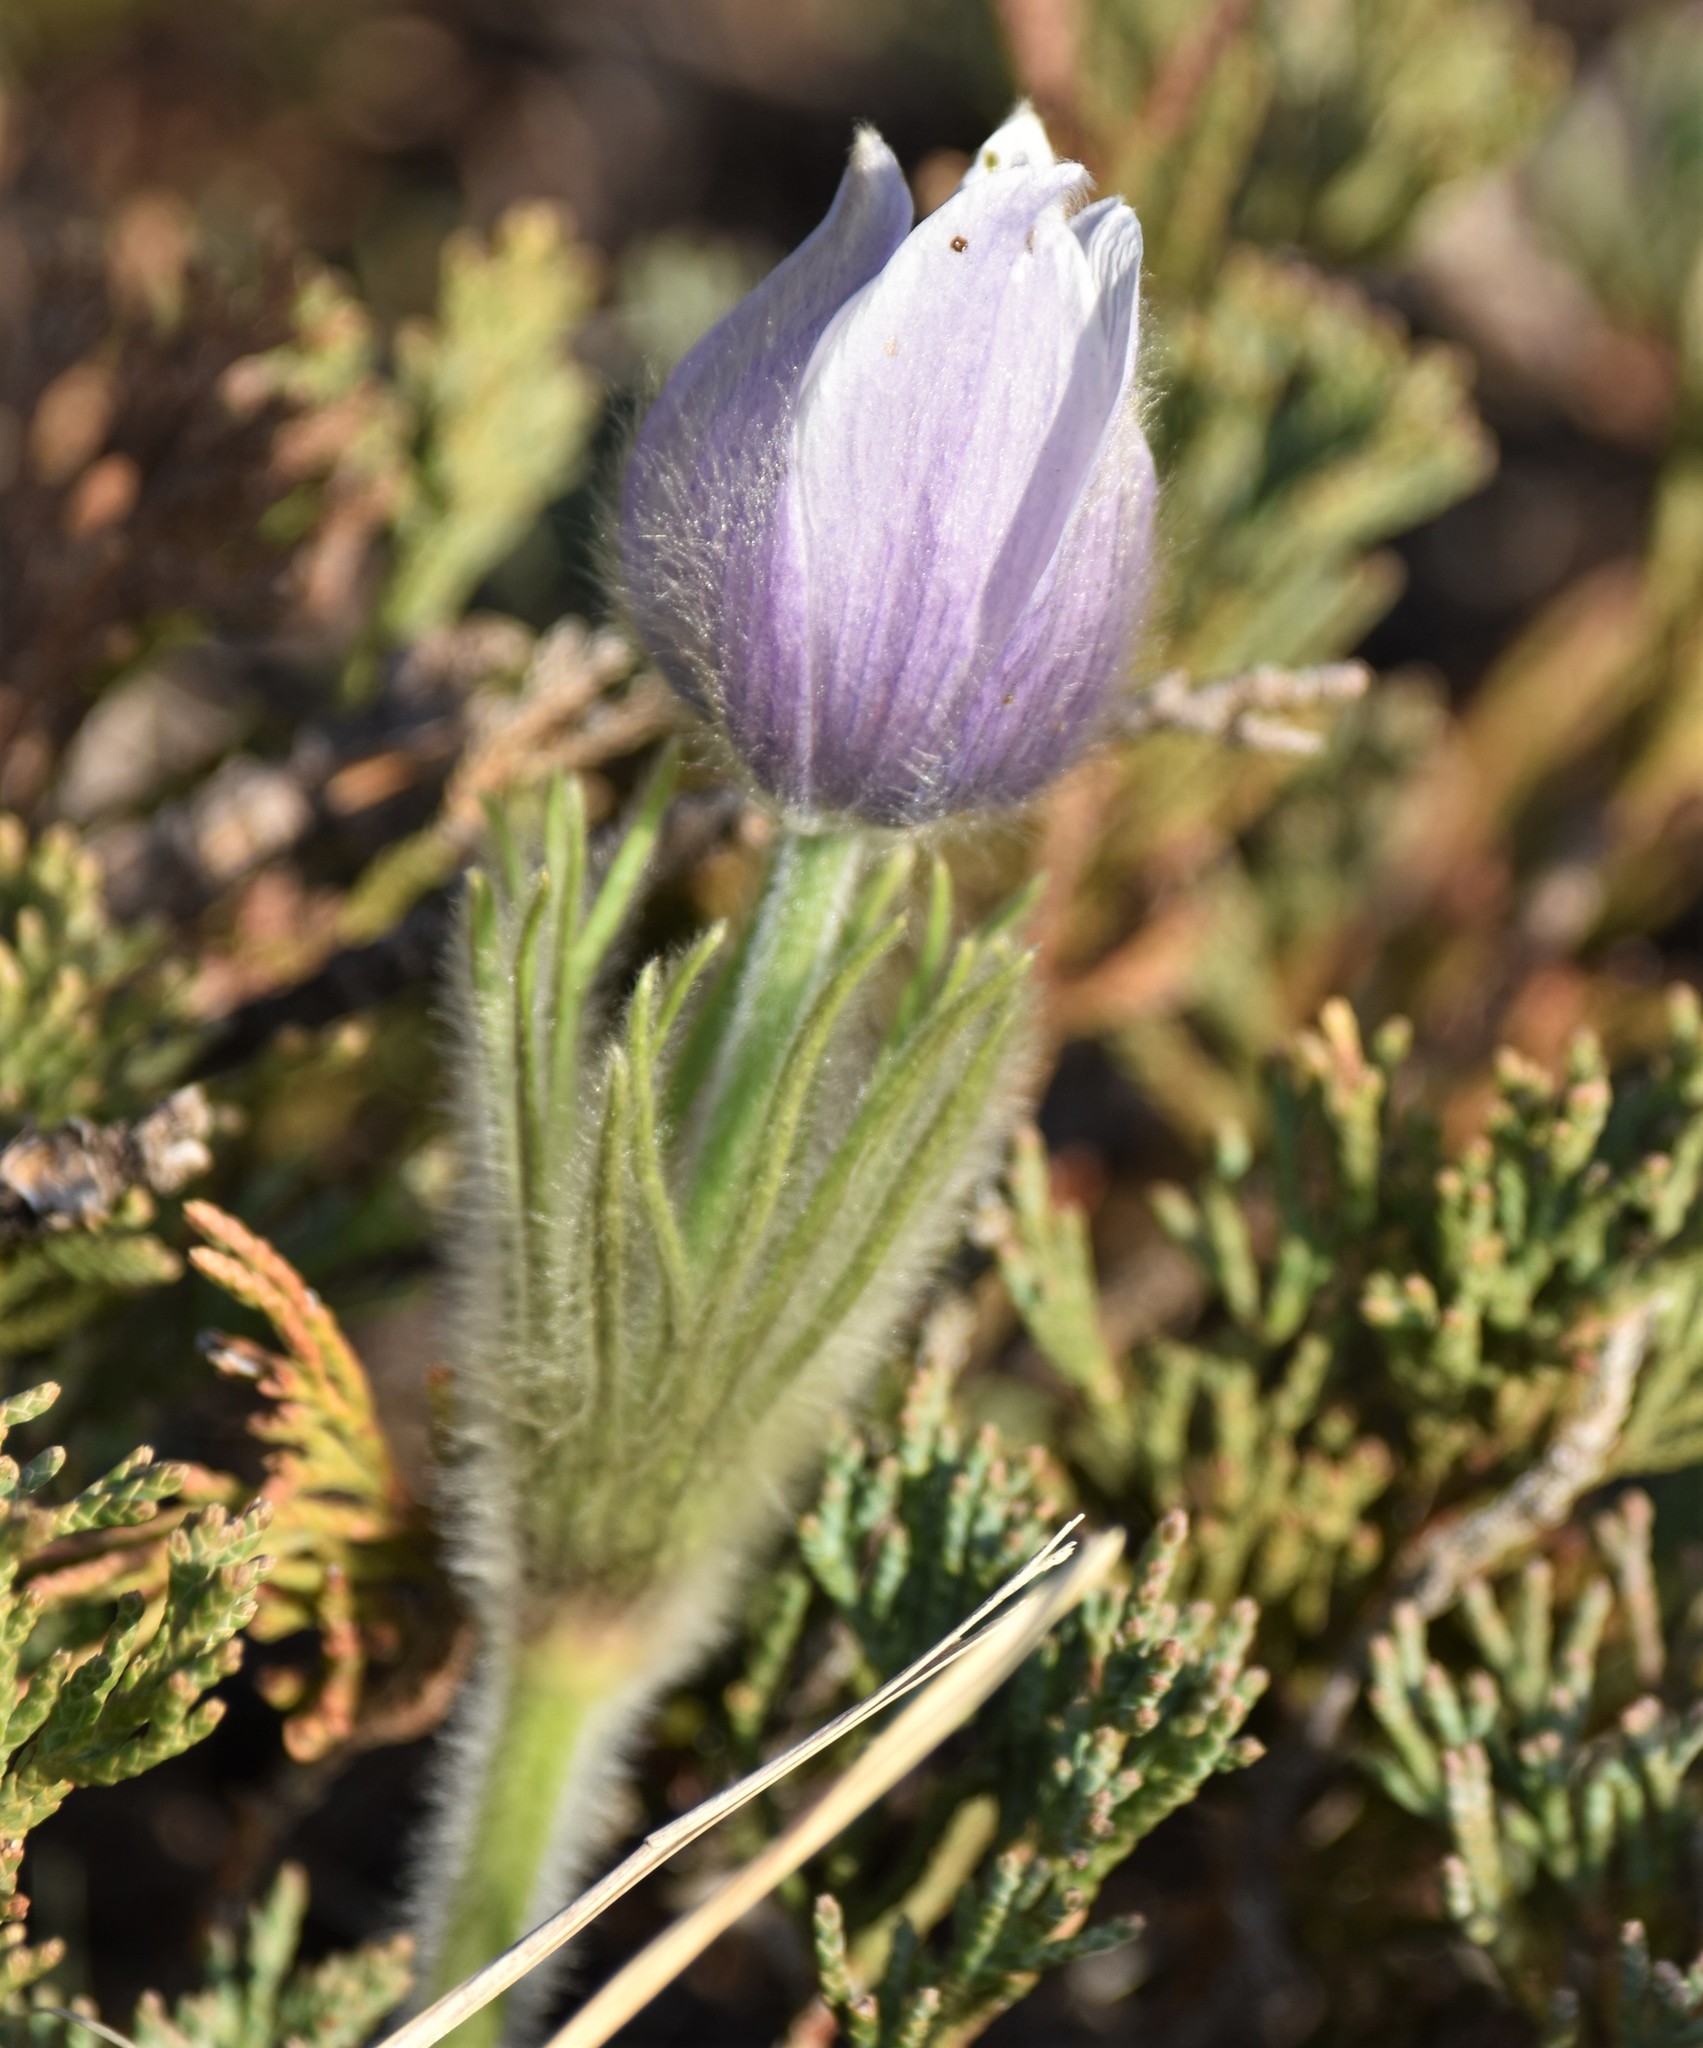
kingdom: Plantae
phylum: Tracheophyta
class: Magnoliopsida
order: Ranunculales
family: Ranunculaceae
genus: Pulsatilla
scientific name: Pulsatilla nuttalliana
